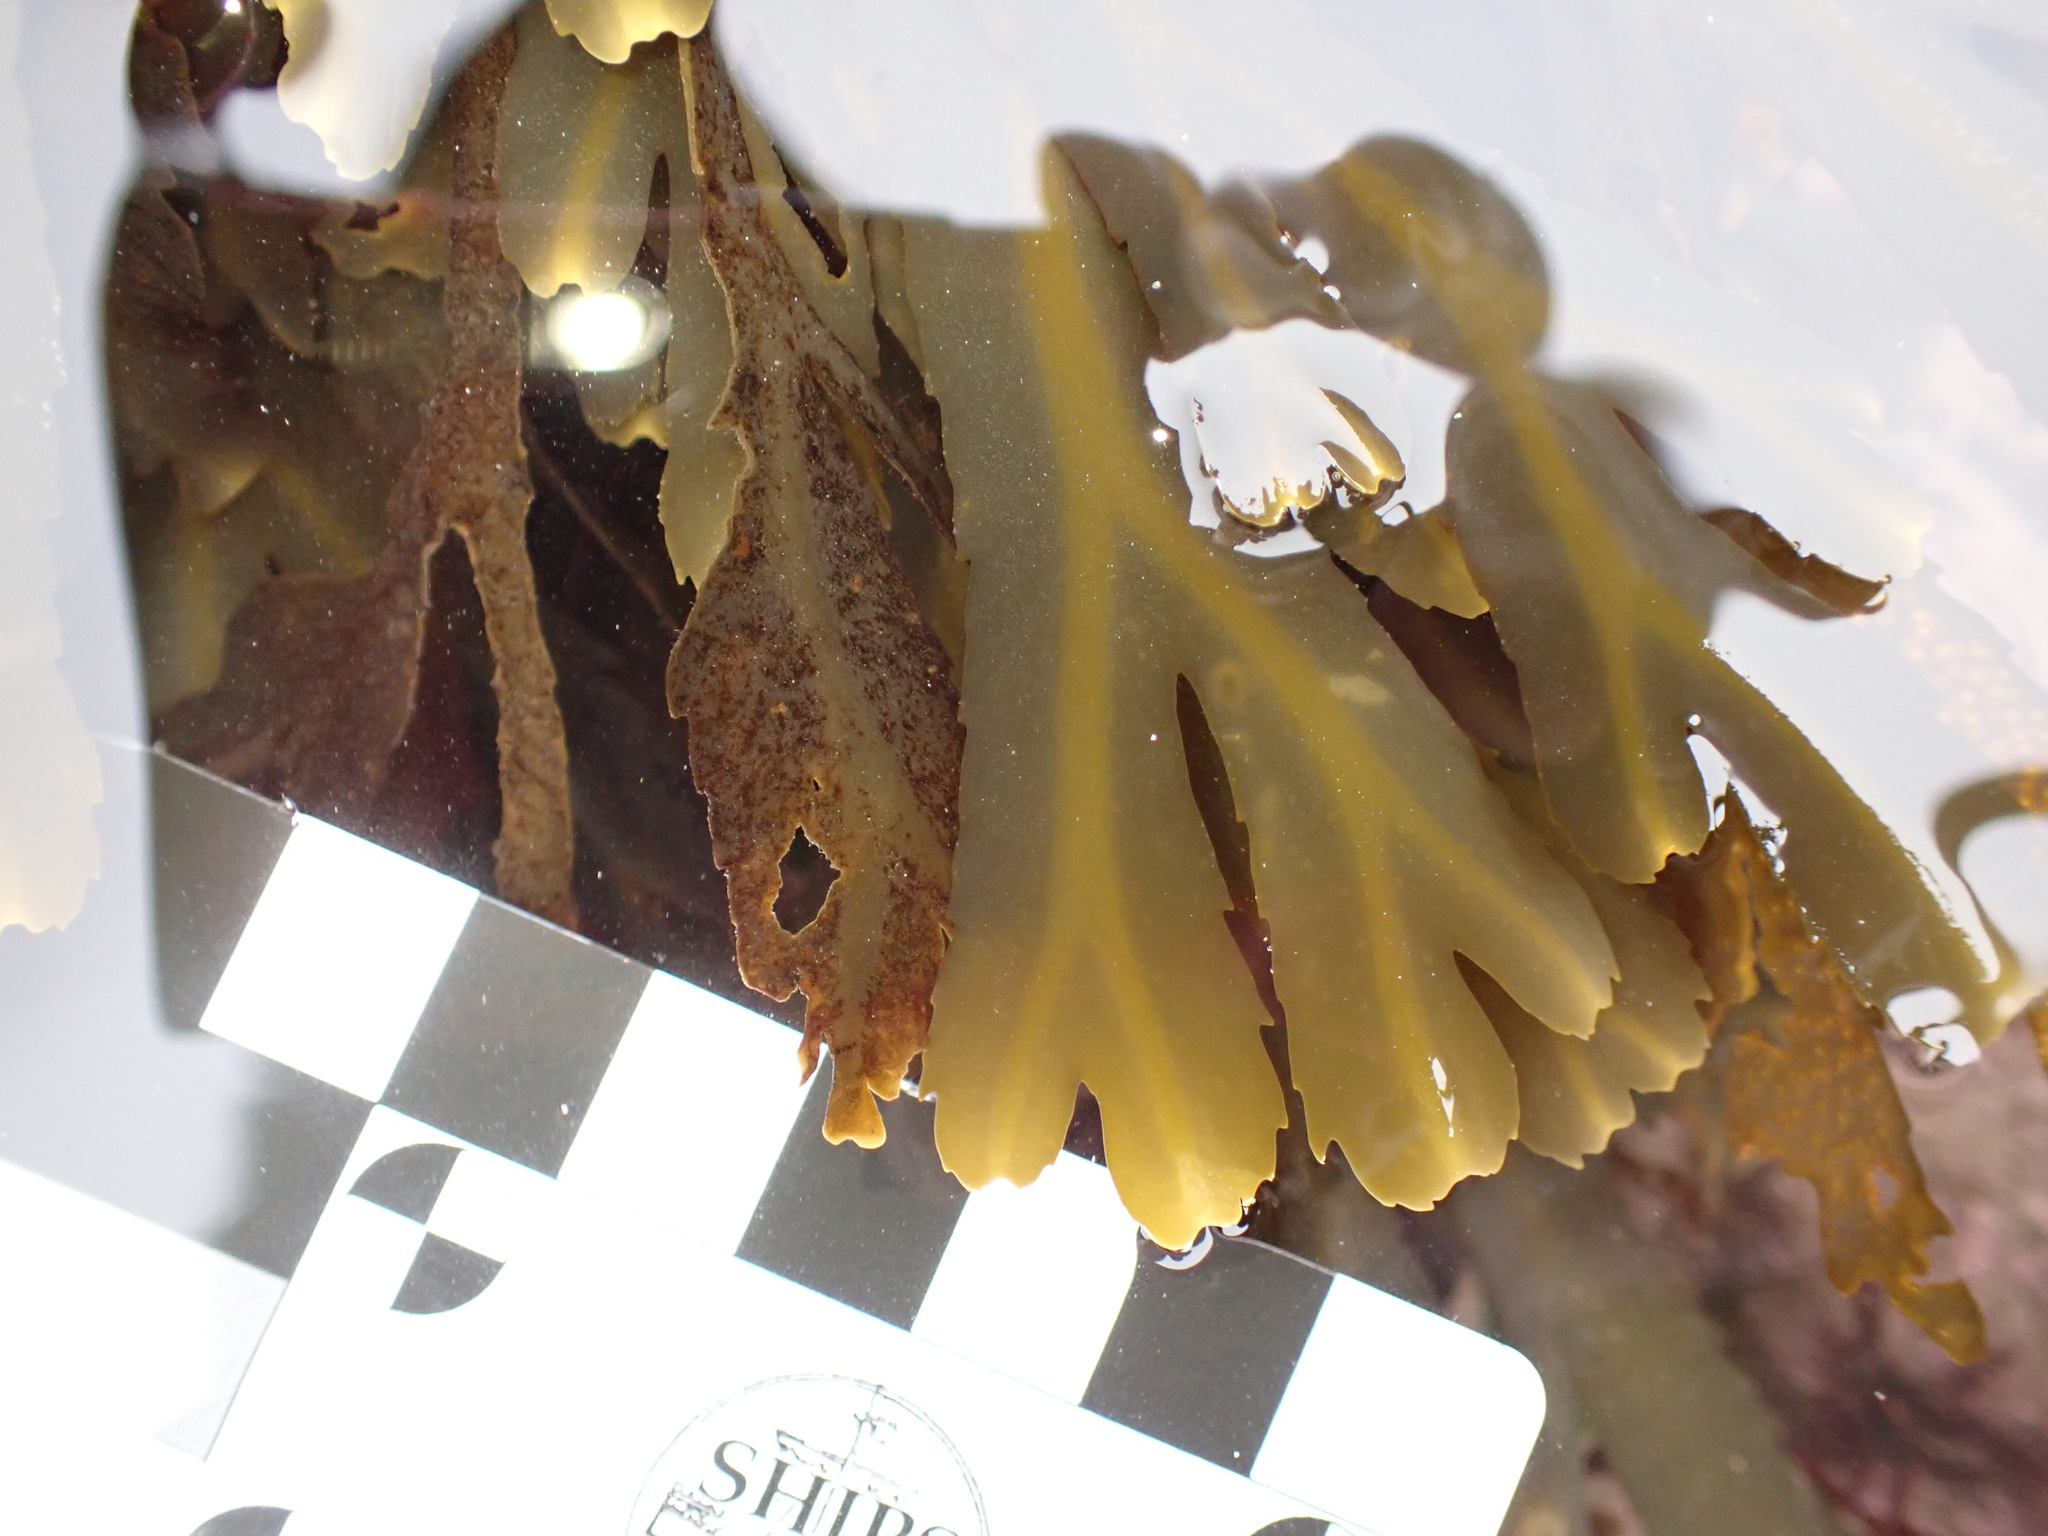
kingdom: Chromista
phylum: Ochrophyta
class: Phaeophyceae
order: Fucales
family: Fucaceae
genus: Fucus
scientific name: Fucus serratus
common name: Toothed wrack
